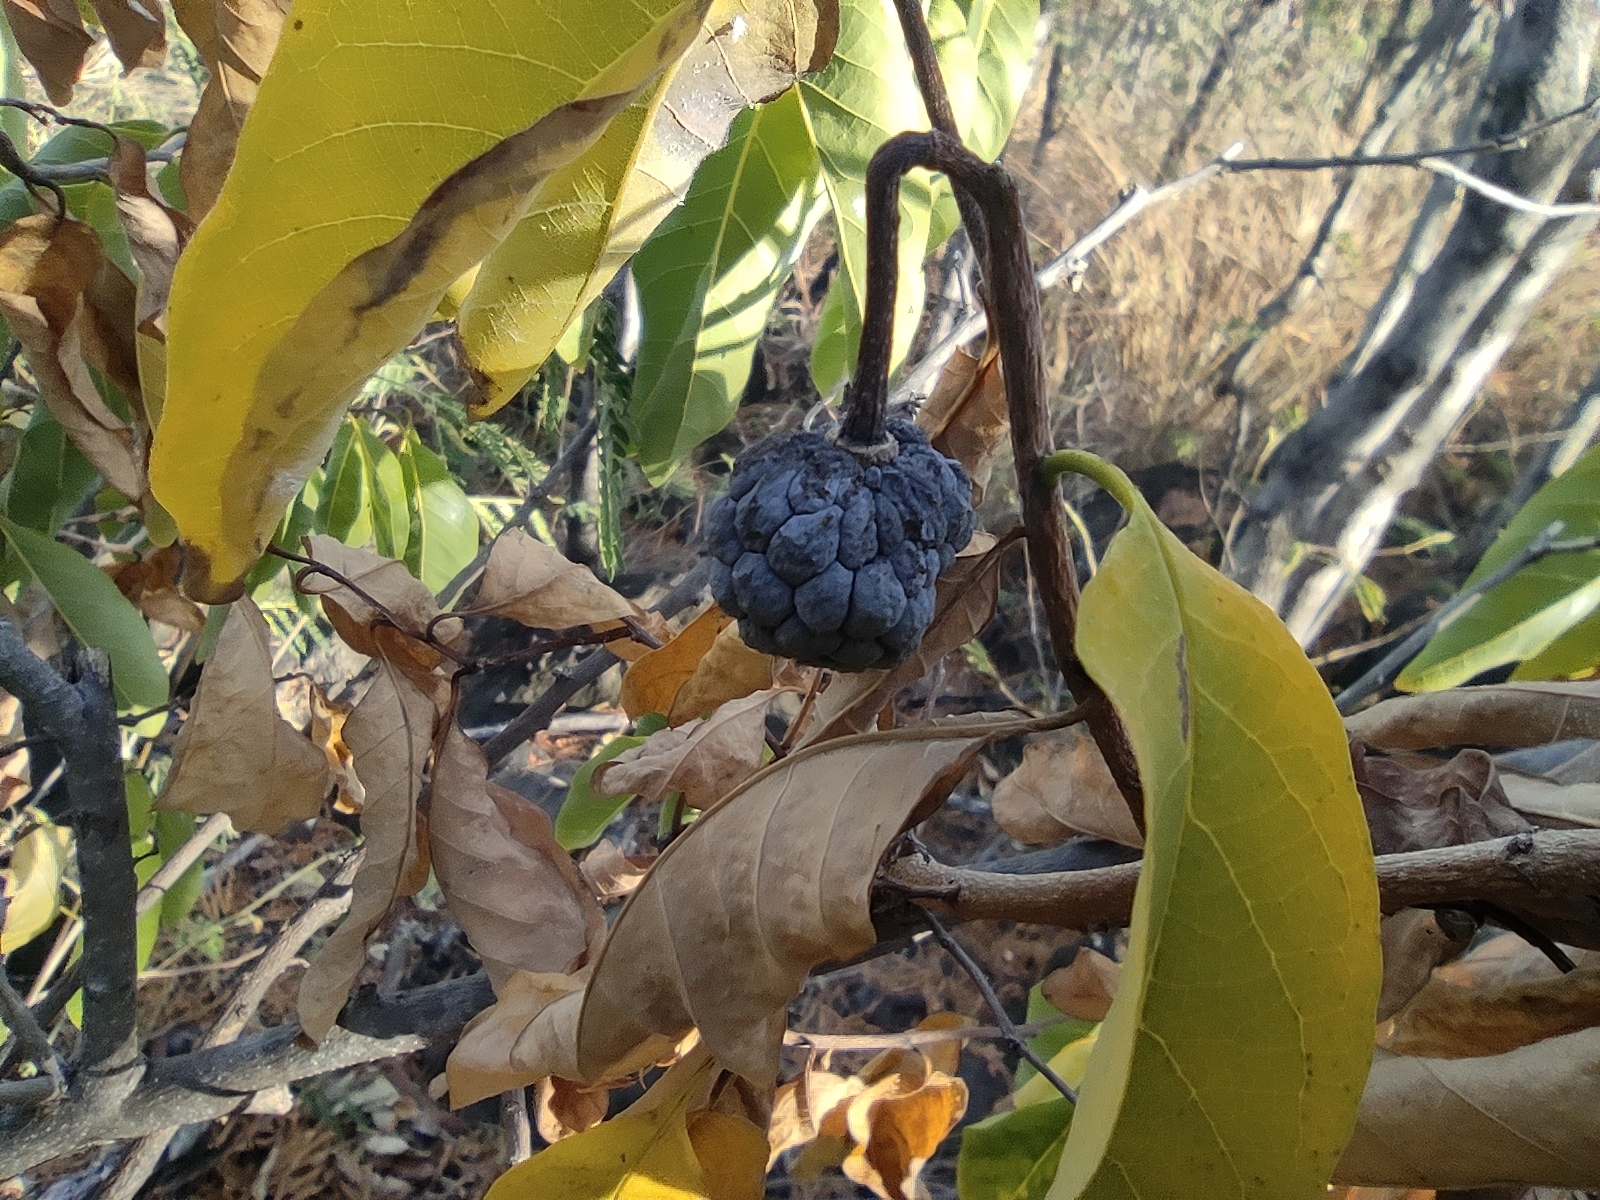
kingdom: Plantae
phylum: Tracheophyta
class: Magnoliopsida
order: Magnoliales
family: Annonaceae
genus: Annona
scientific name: Annona squamosa
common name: Custard-apple
